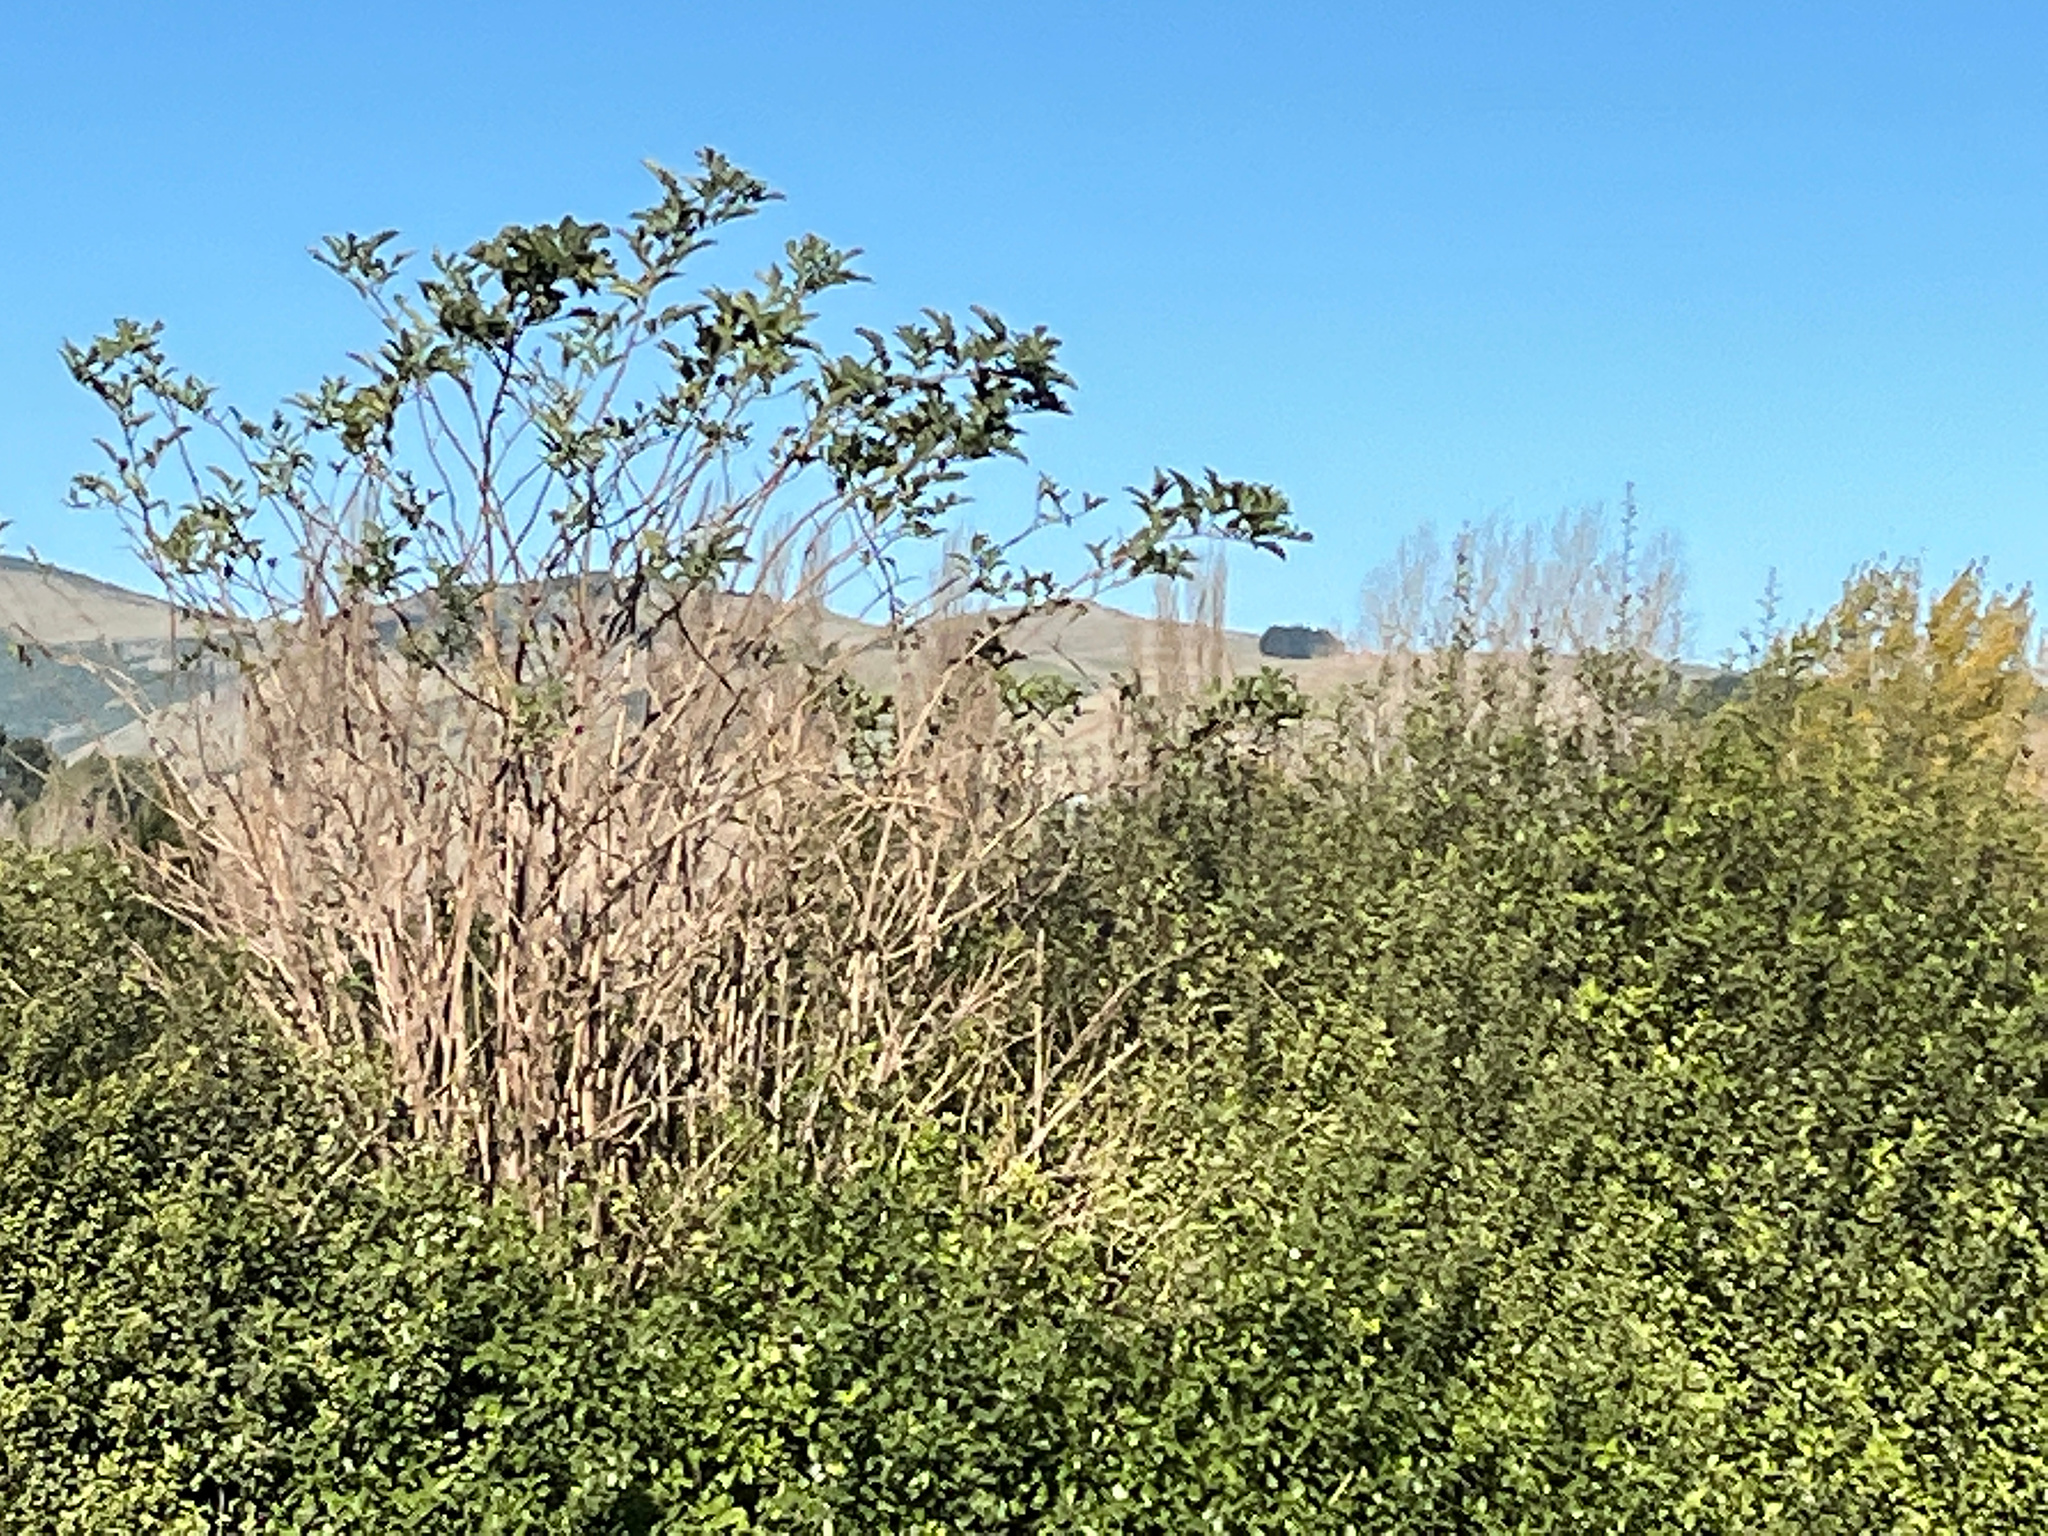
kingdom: Plantae
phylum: Tracheophyta
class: Magnoliopsida
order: Dipsacales
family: Viburnaceae
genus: Sambucus
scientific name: Sambucus nigra
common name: Elder
